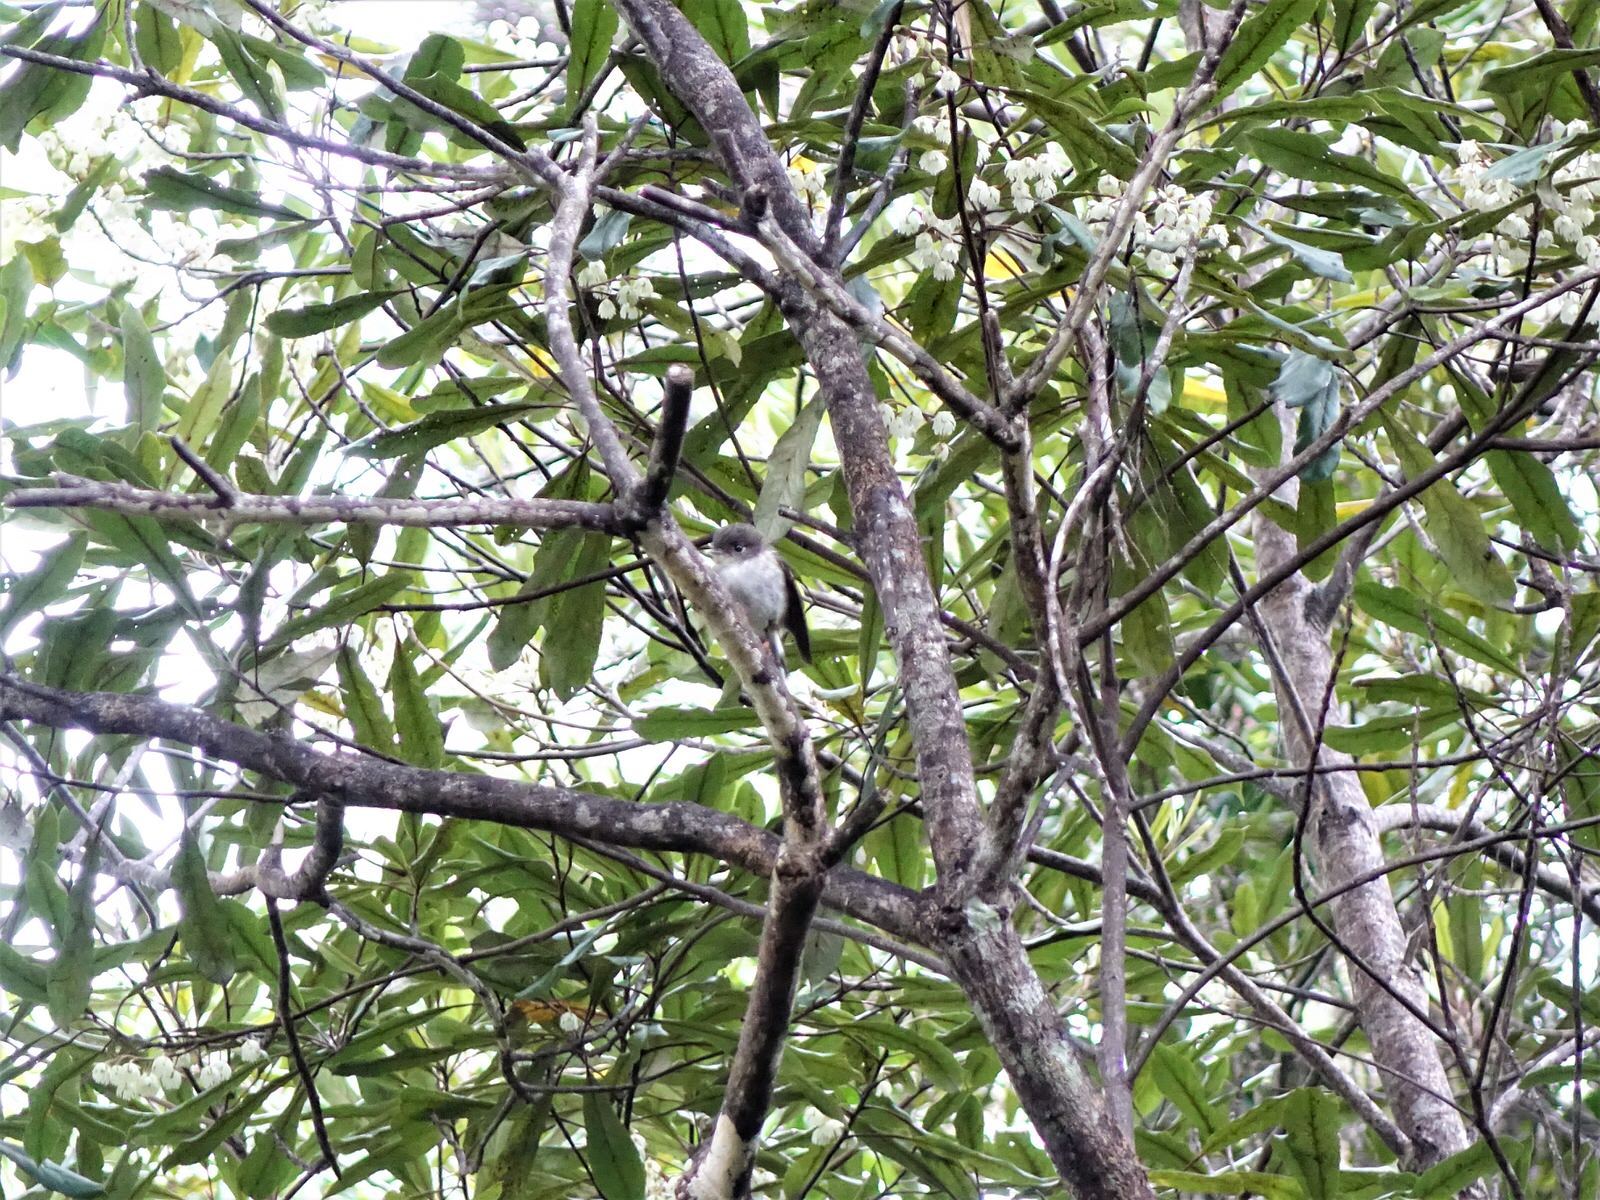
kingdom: Animalia
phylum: Chordata
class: Aves
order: Passeriformes
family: Petroicidae
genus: Petroica
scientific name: Petroica macrocephala
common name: Tomtit
